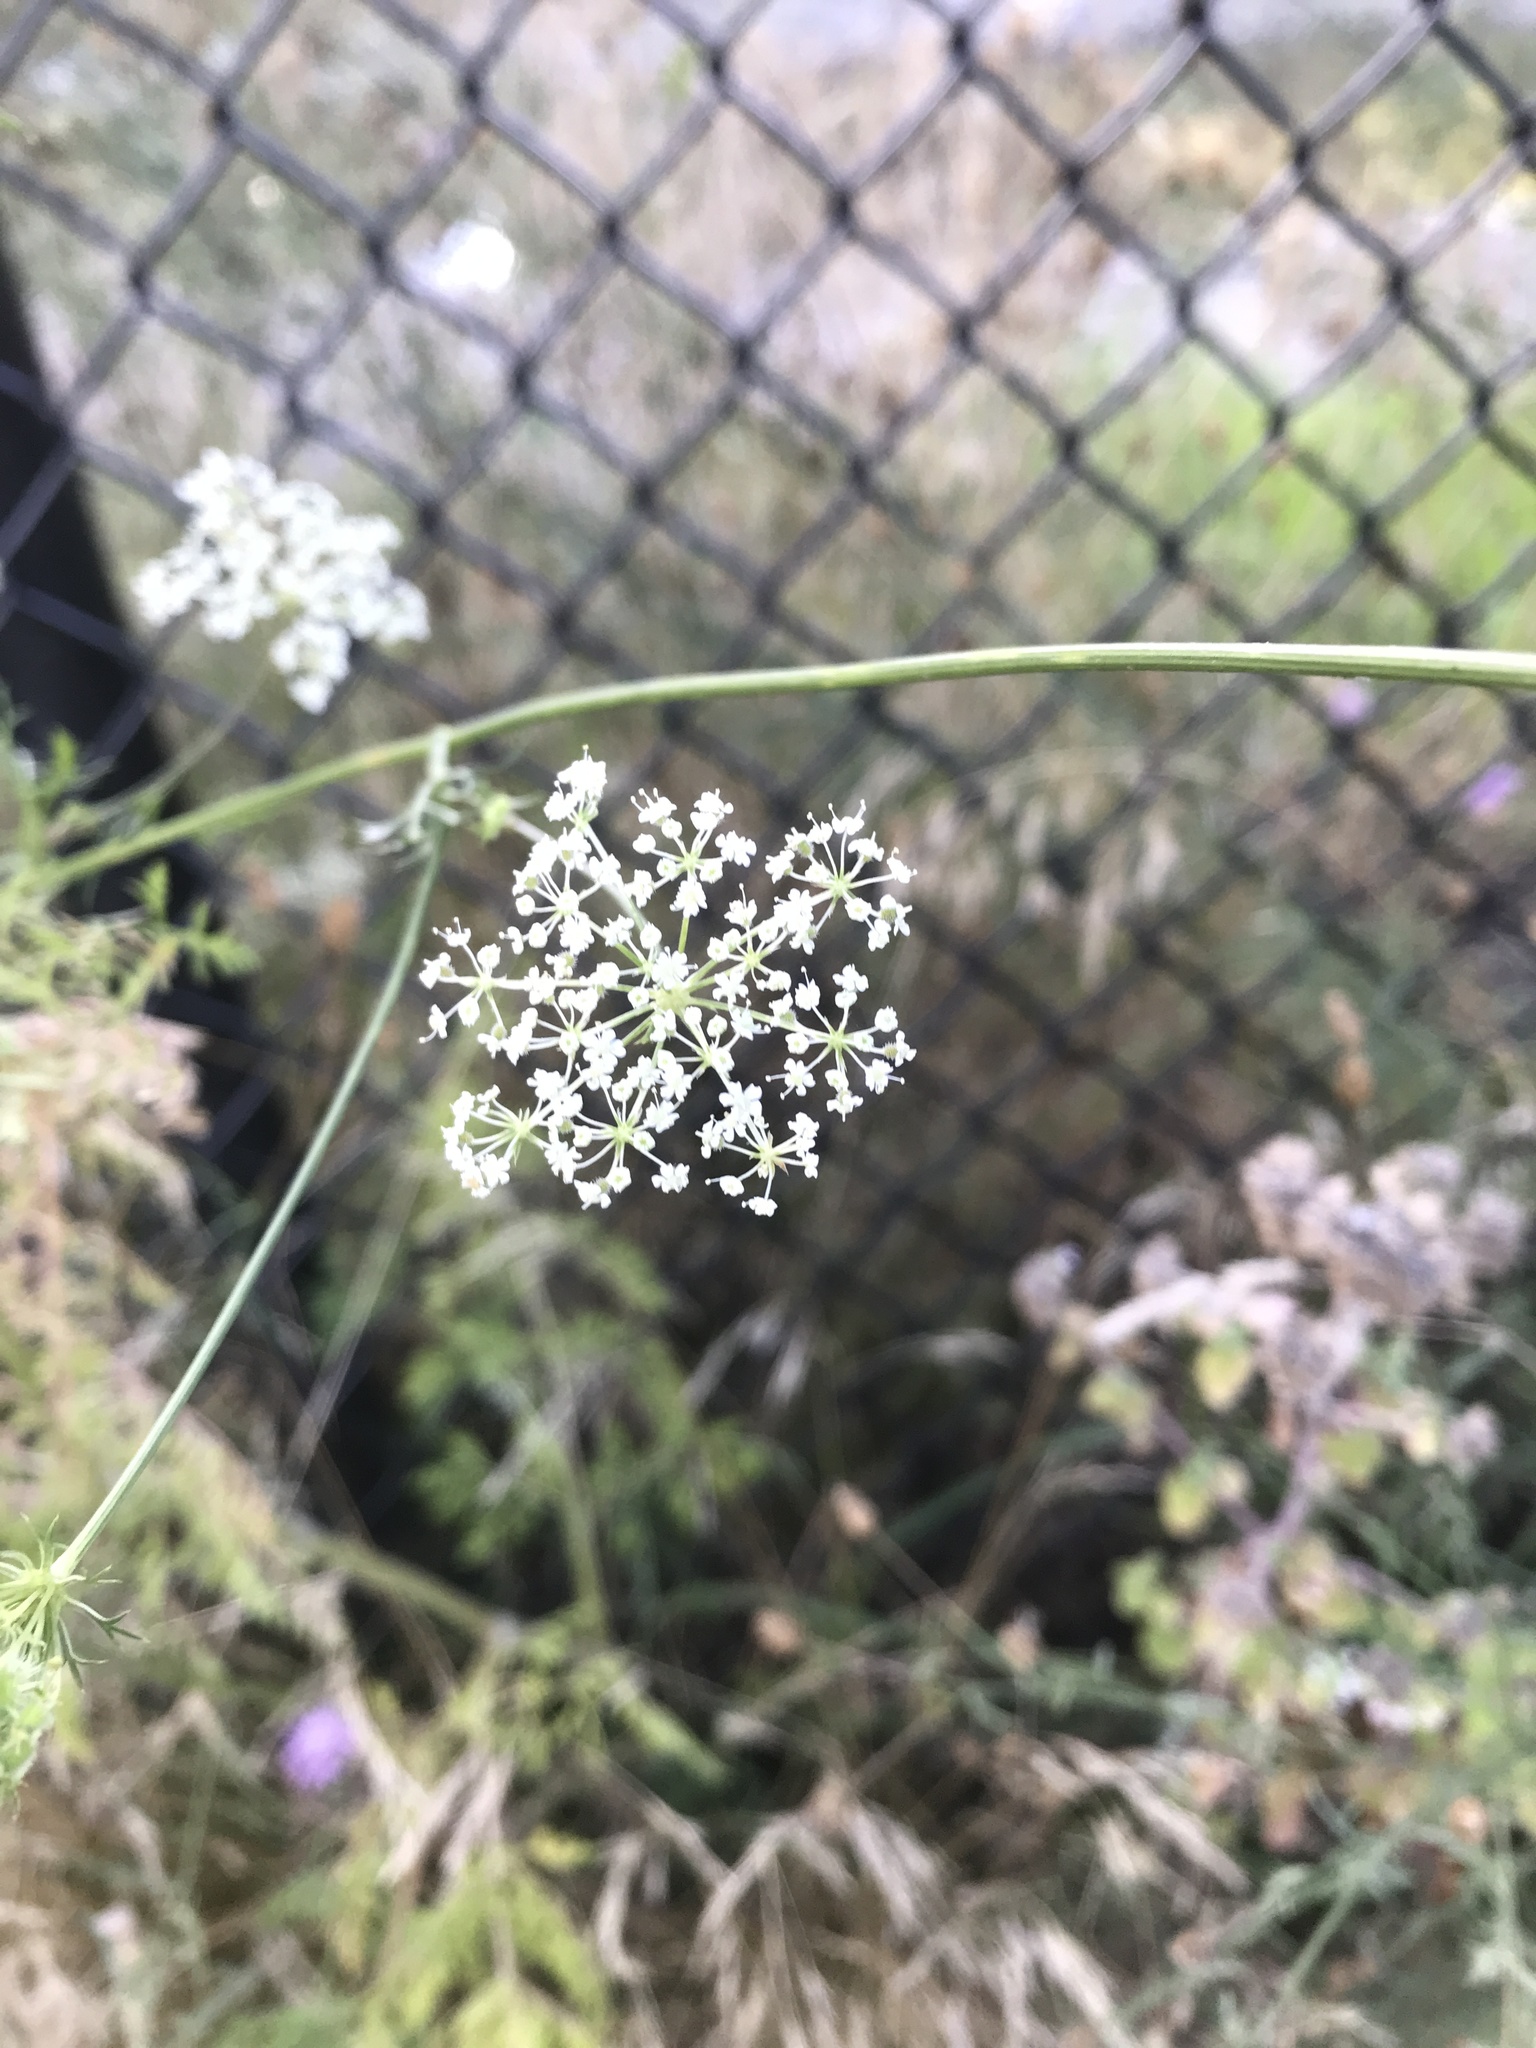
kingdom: Plantae
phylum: Tracheophyta
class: Magnoliopsida
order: Apiales
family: Apiaceae
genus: Daucus
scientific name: Daucus carota
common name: Wild carrot
